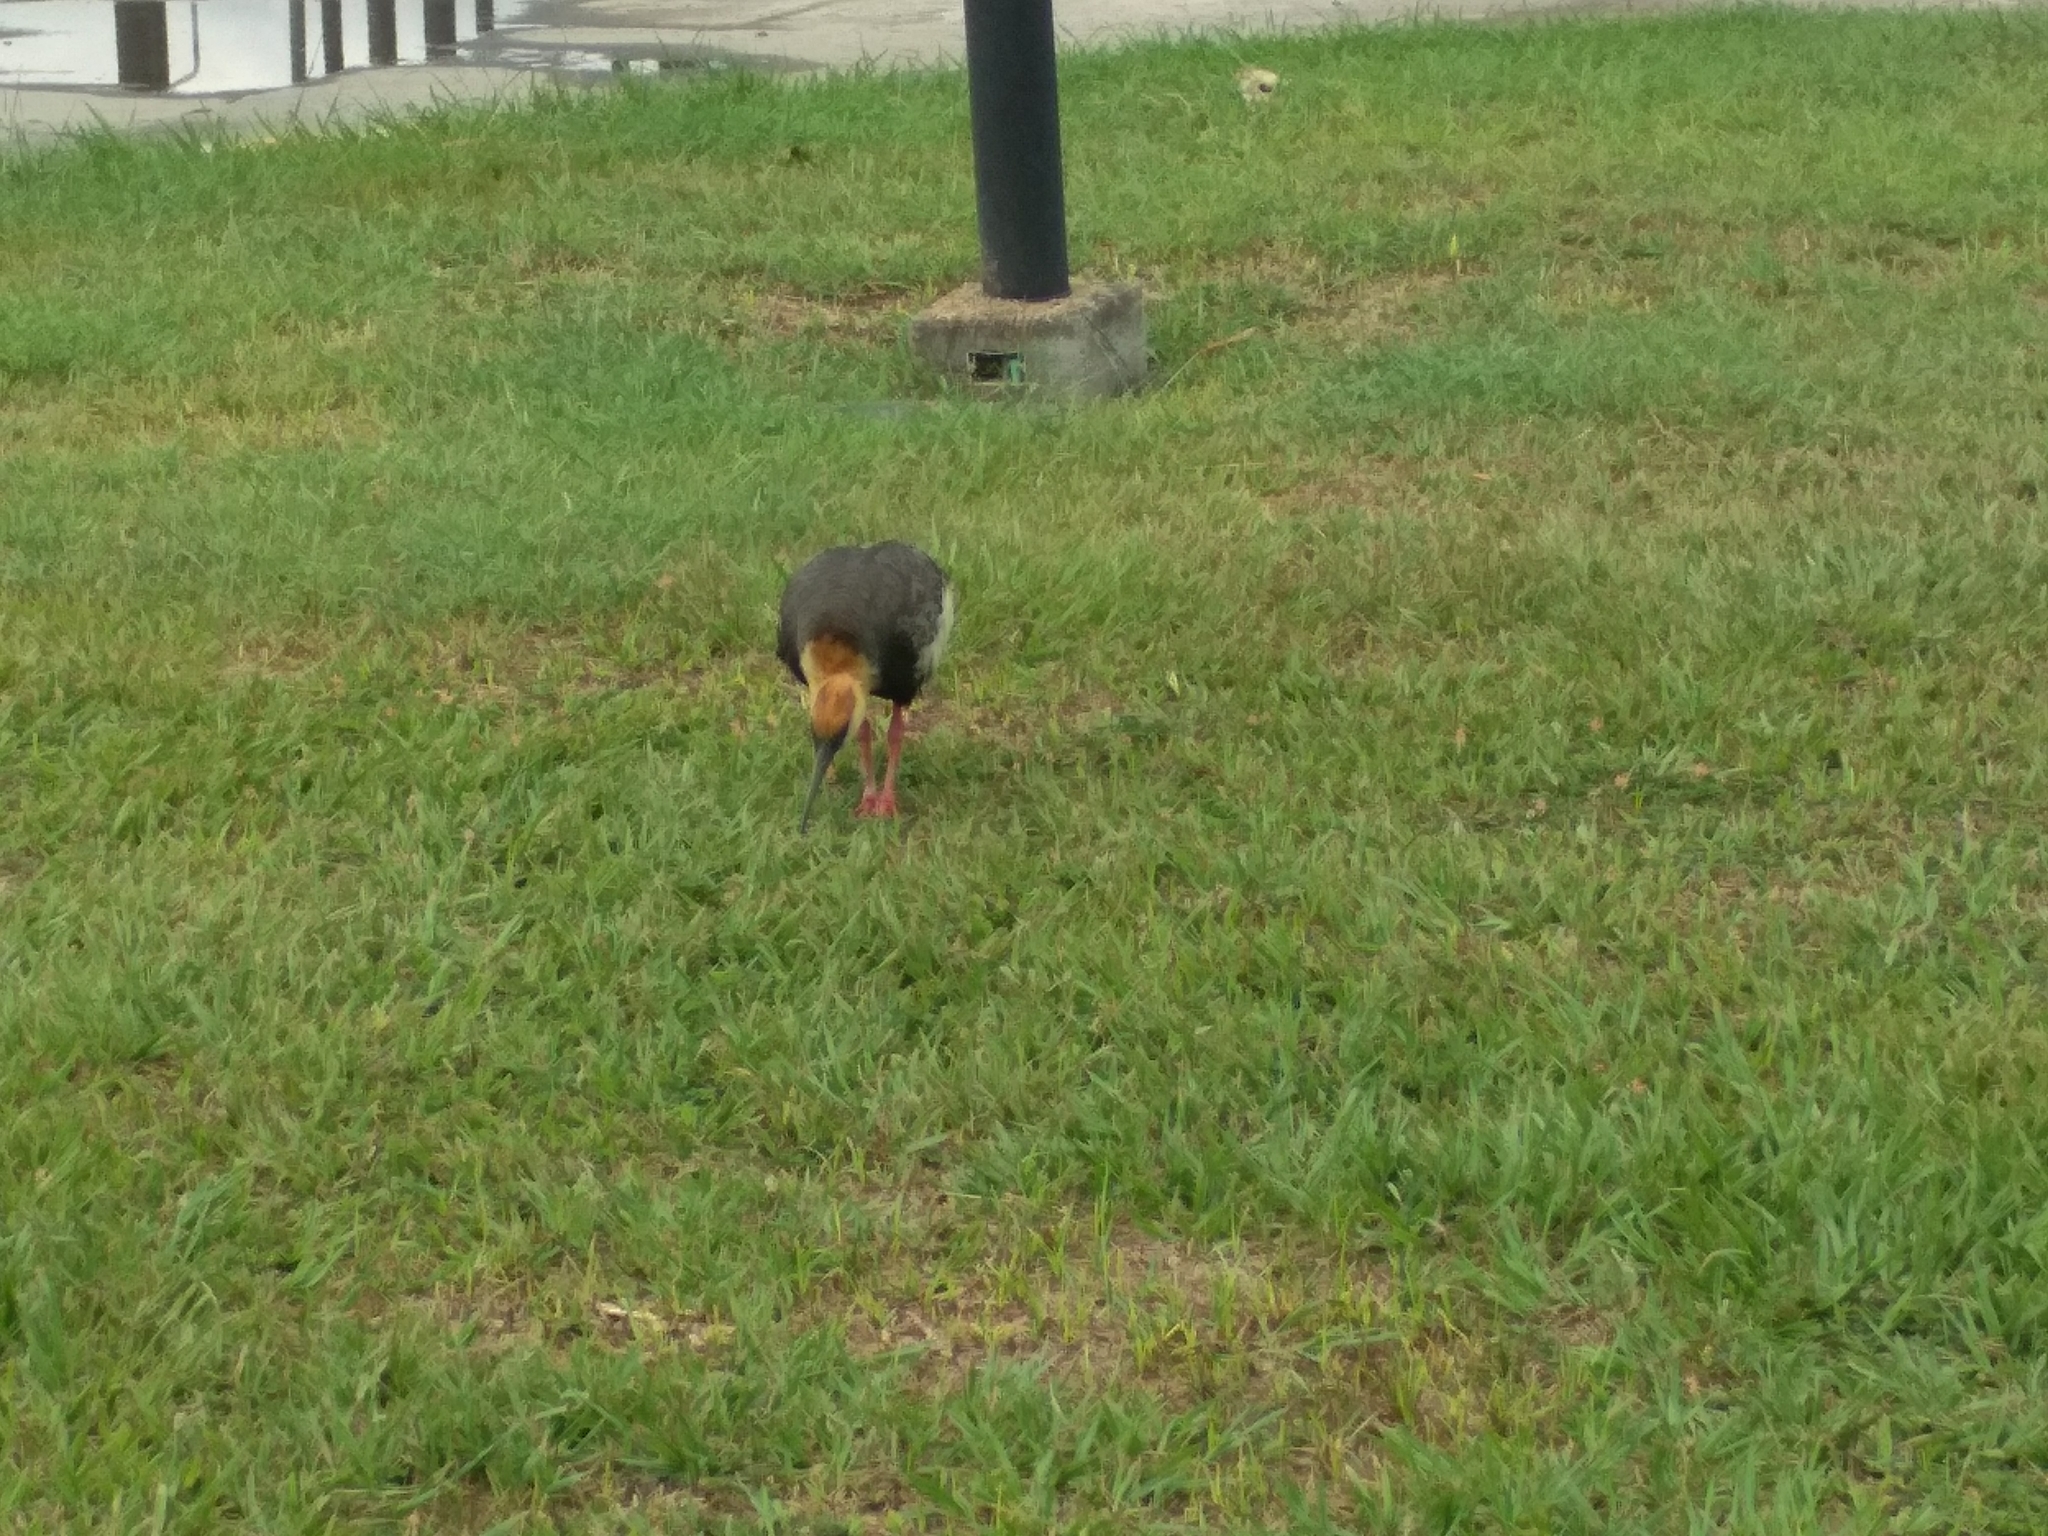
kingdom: Animalia
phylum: Chordata
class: Aves
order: Pelecaniformes
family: Threskiornithidae
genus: Theristicus
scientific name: Theristicus caudatus
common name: Buff-necked ibis
